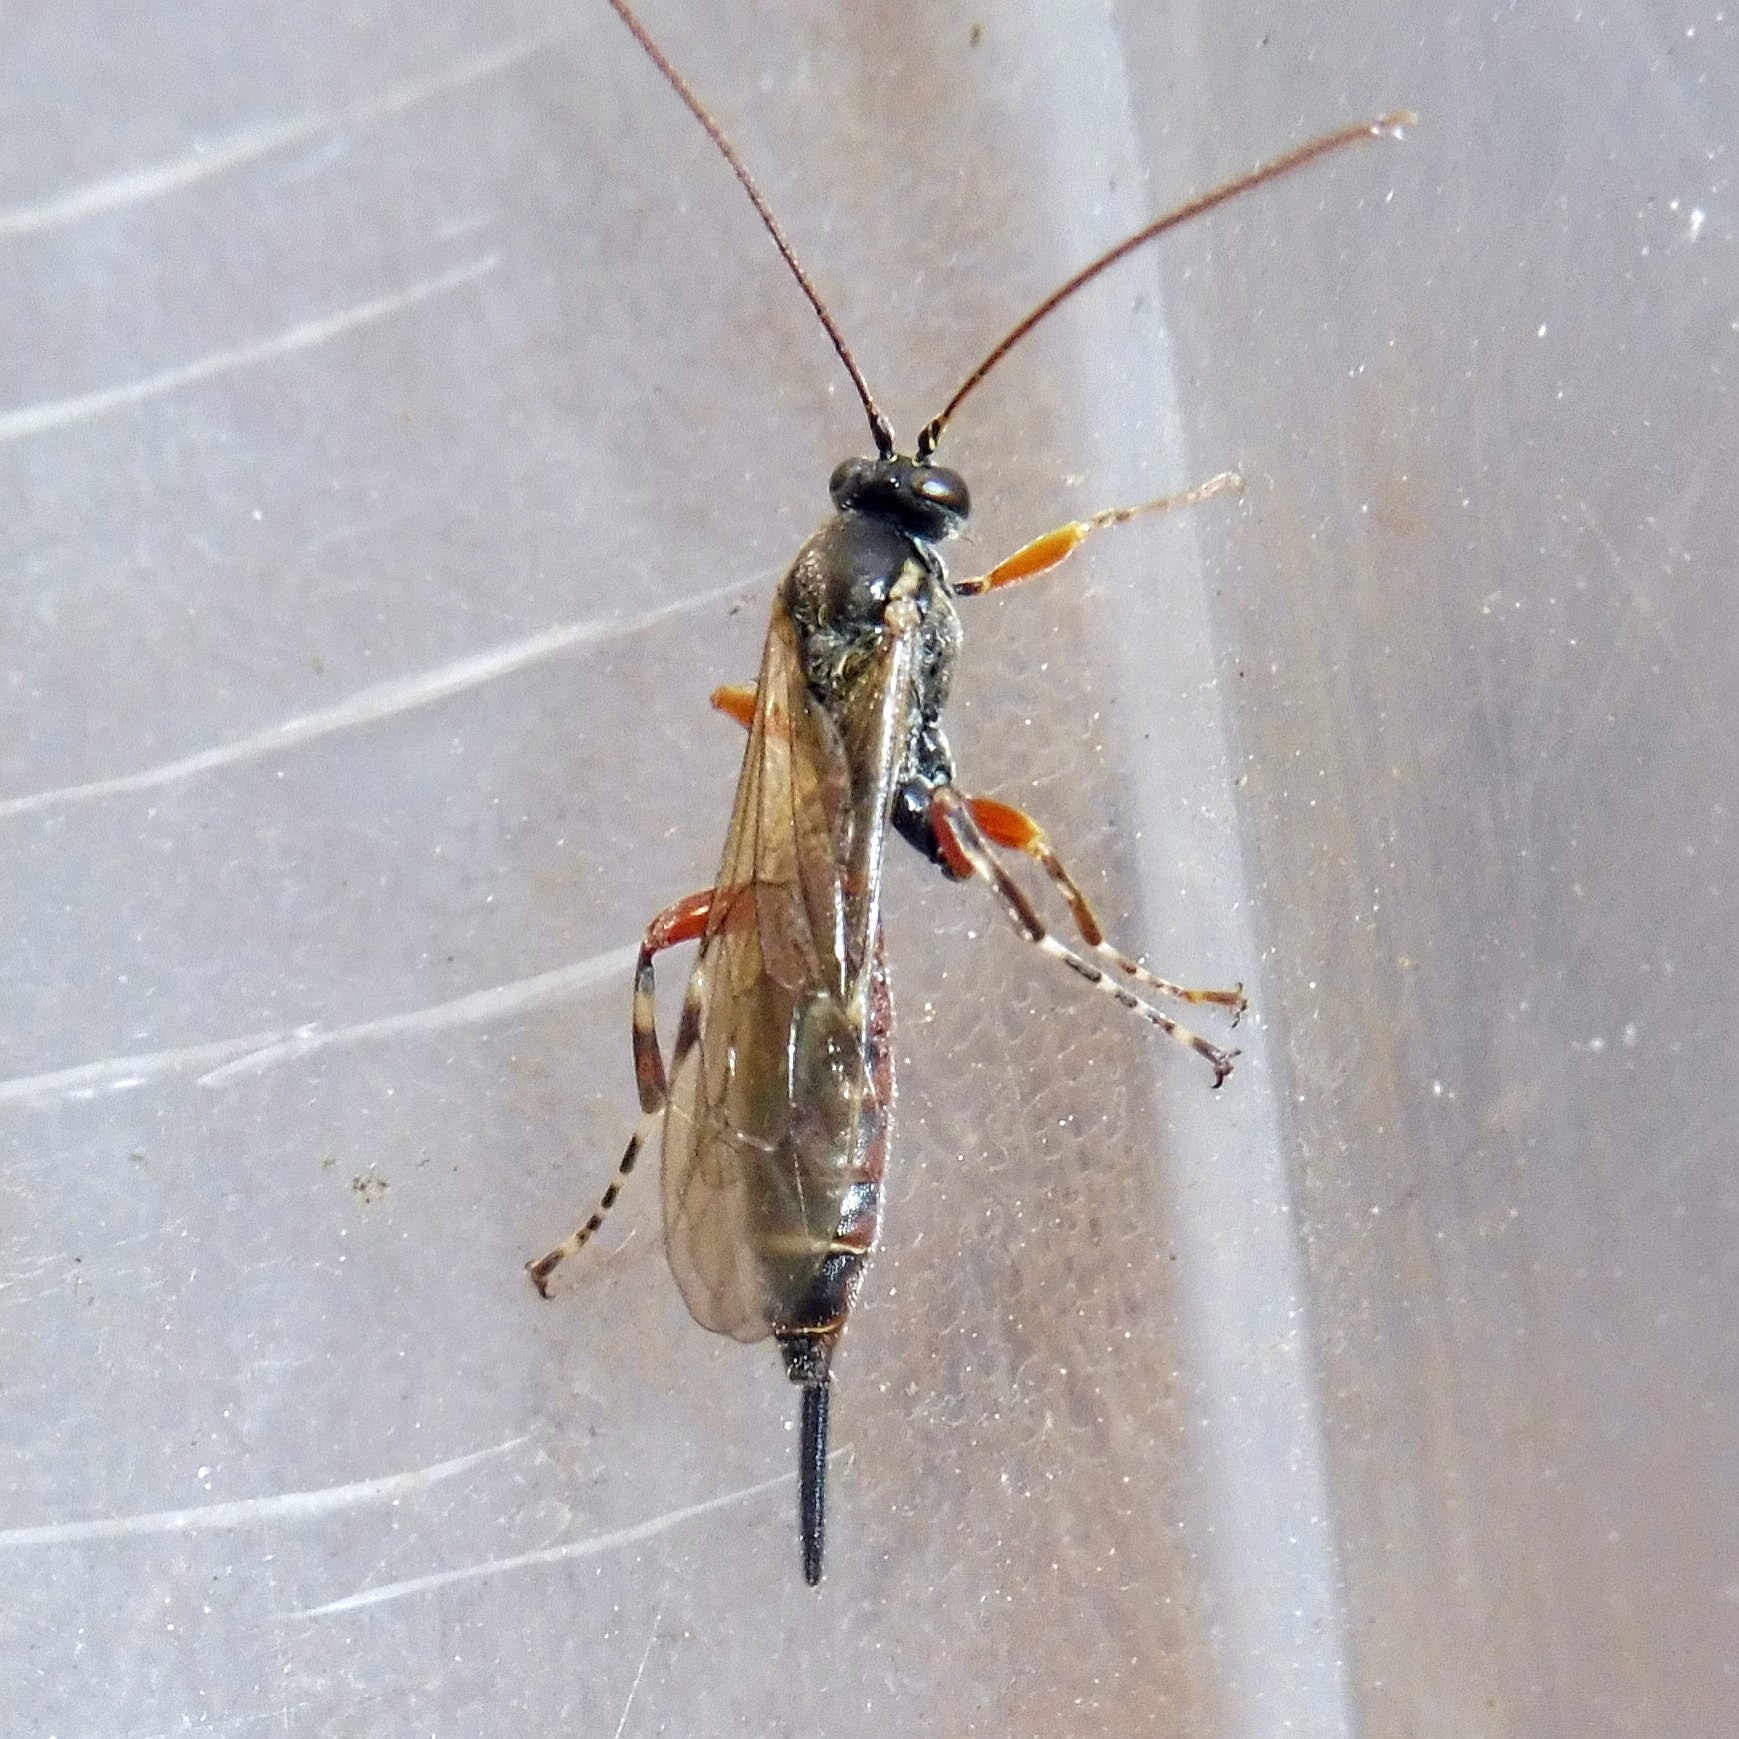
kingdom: Animalia
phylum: Arthropoda
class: Insecta
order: Hymenoptera
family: Ichneumonidae
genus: Itoplectis
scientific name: Itoplectis maculator
